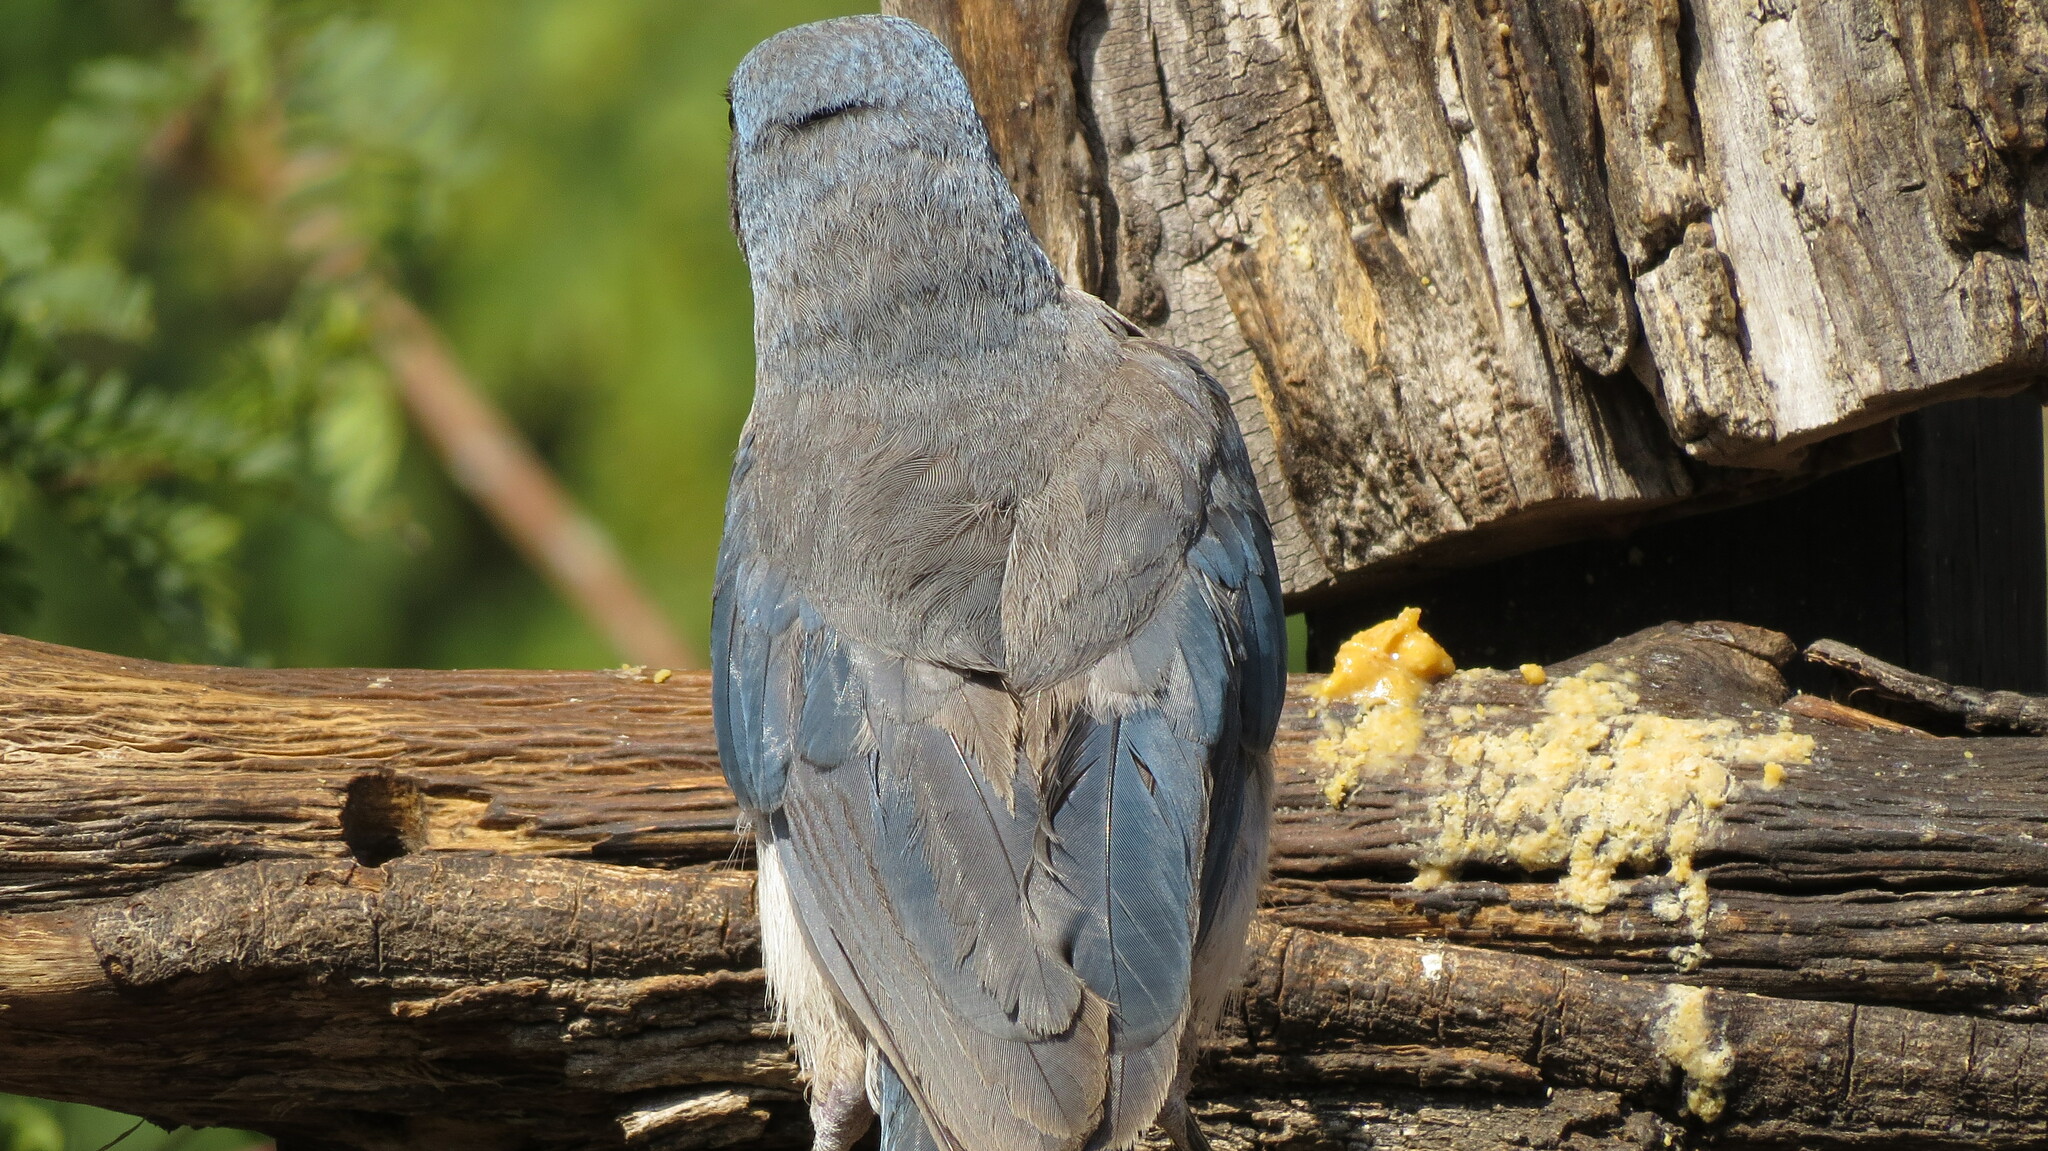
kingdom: Animalia
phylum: Chordata
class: Aves
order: Passeriformes
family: Corvidae
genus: Aphelocoma
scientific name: Aphelocoma wollweberi
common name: Mexican jay
